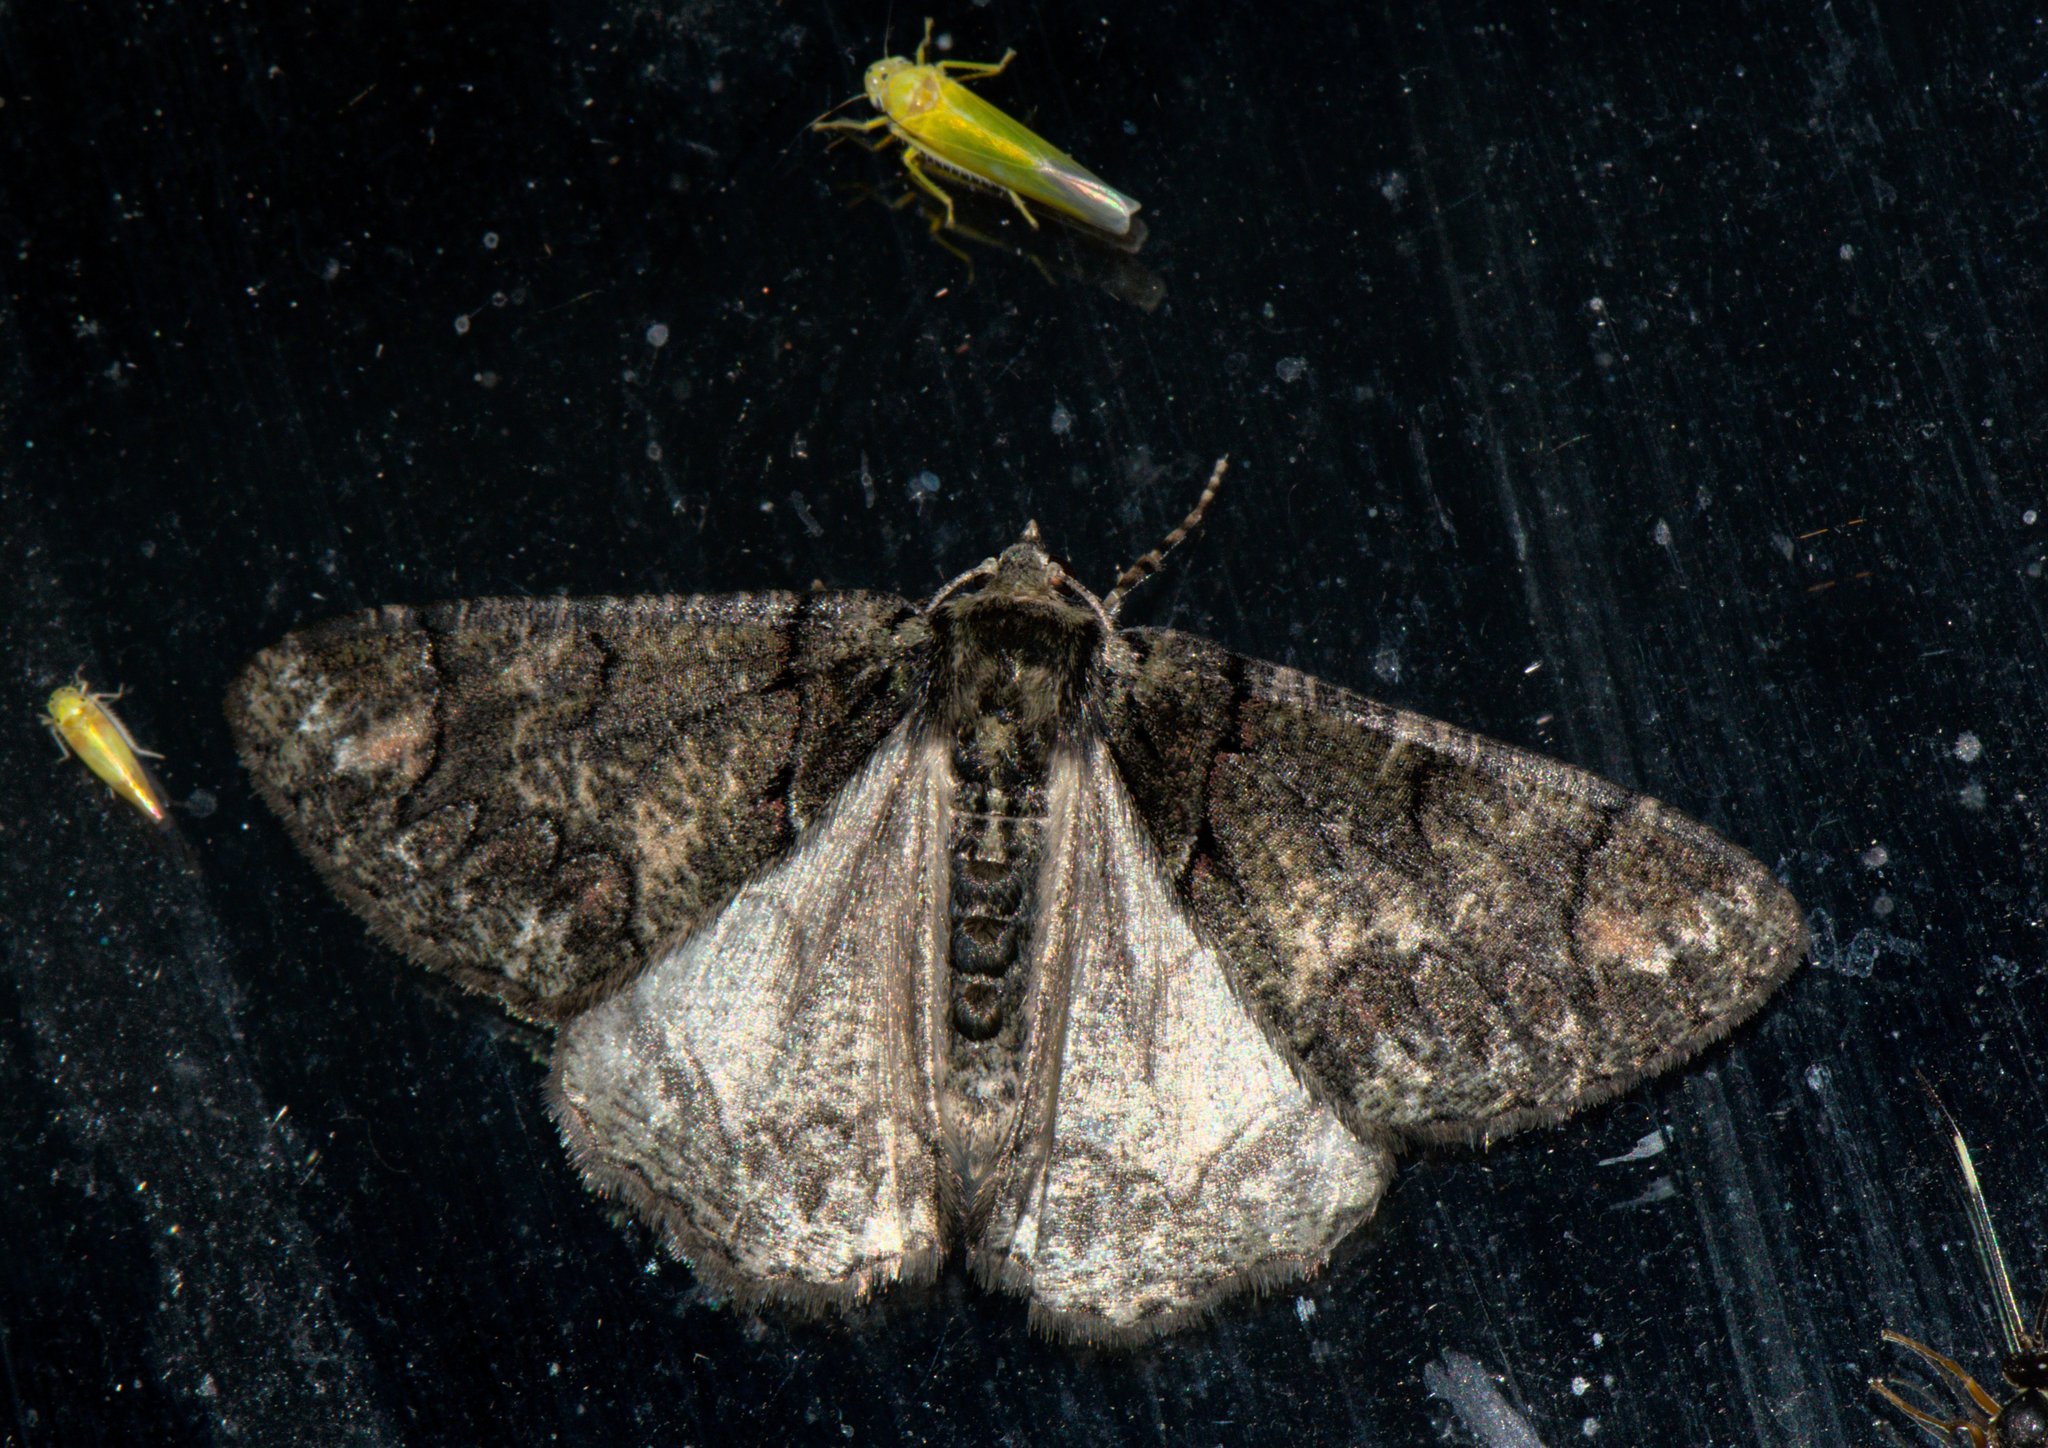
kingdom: Animalia
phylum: Arthropoda
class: Insecta
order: Lepidoptera
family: Geometridae
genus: Metaterpna
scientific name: Metaterpna differens
